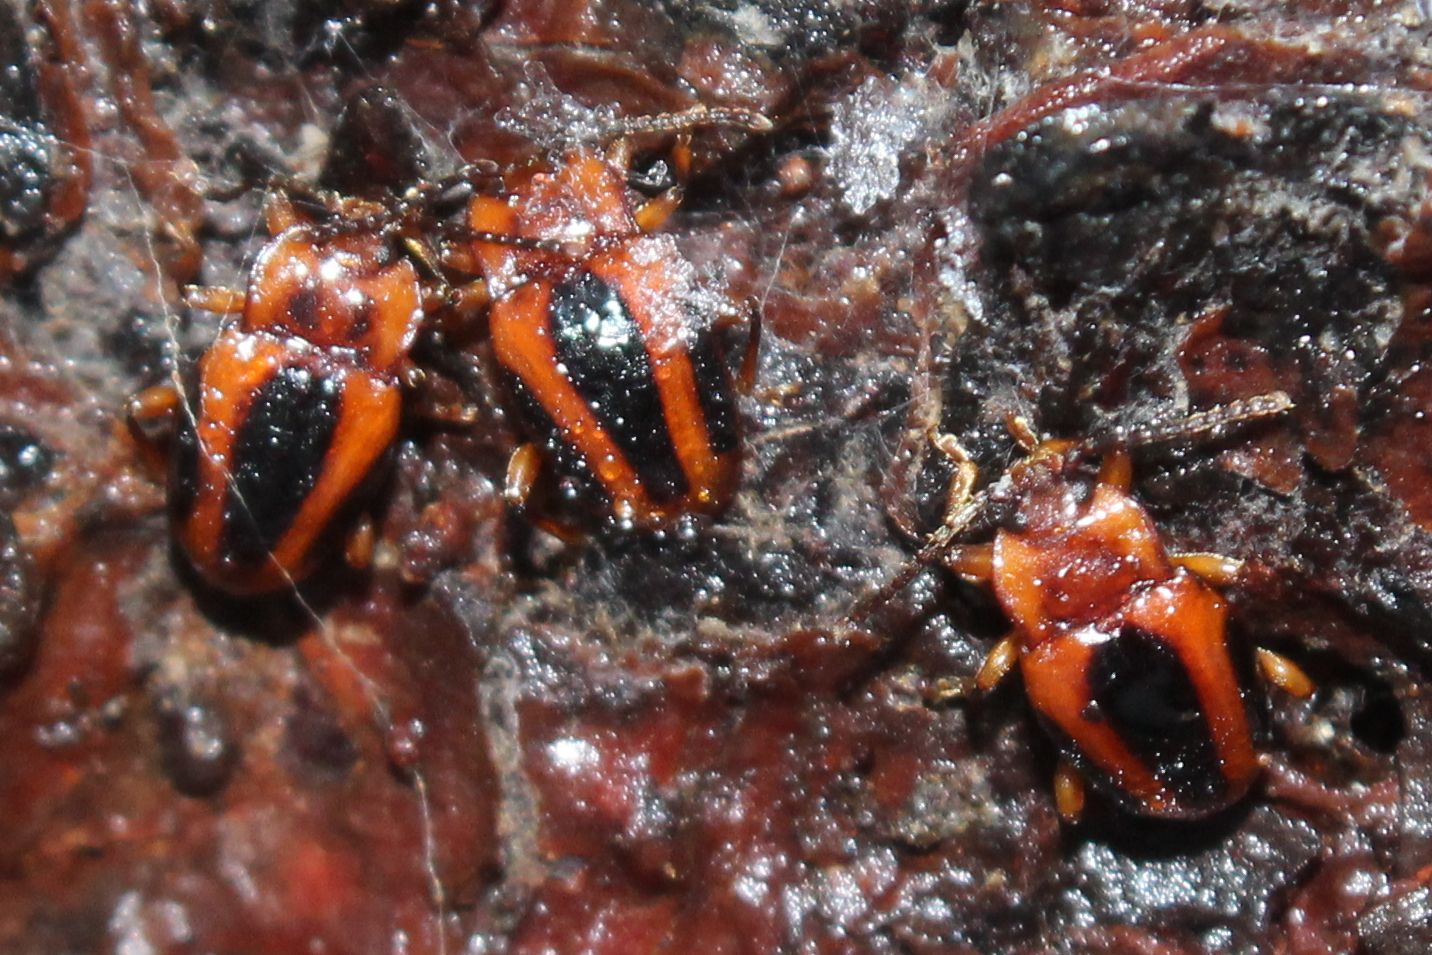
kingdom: Animalia
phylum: Arthropoda
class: Insecta
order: Coleoptera
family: Endomychidae
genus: Aphorista
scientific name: Aphorista vittata
